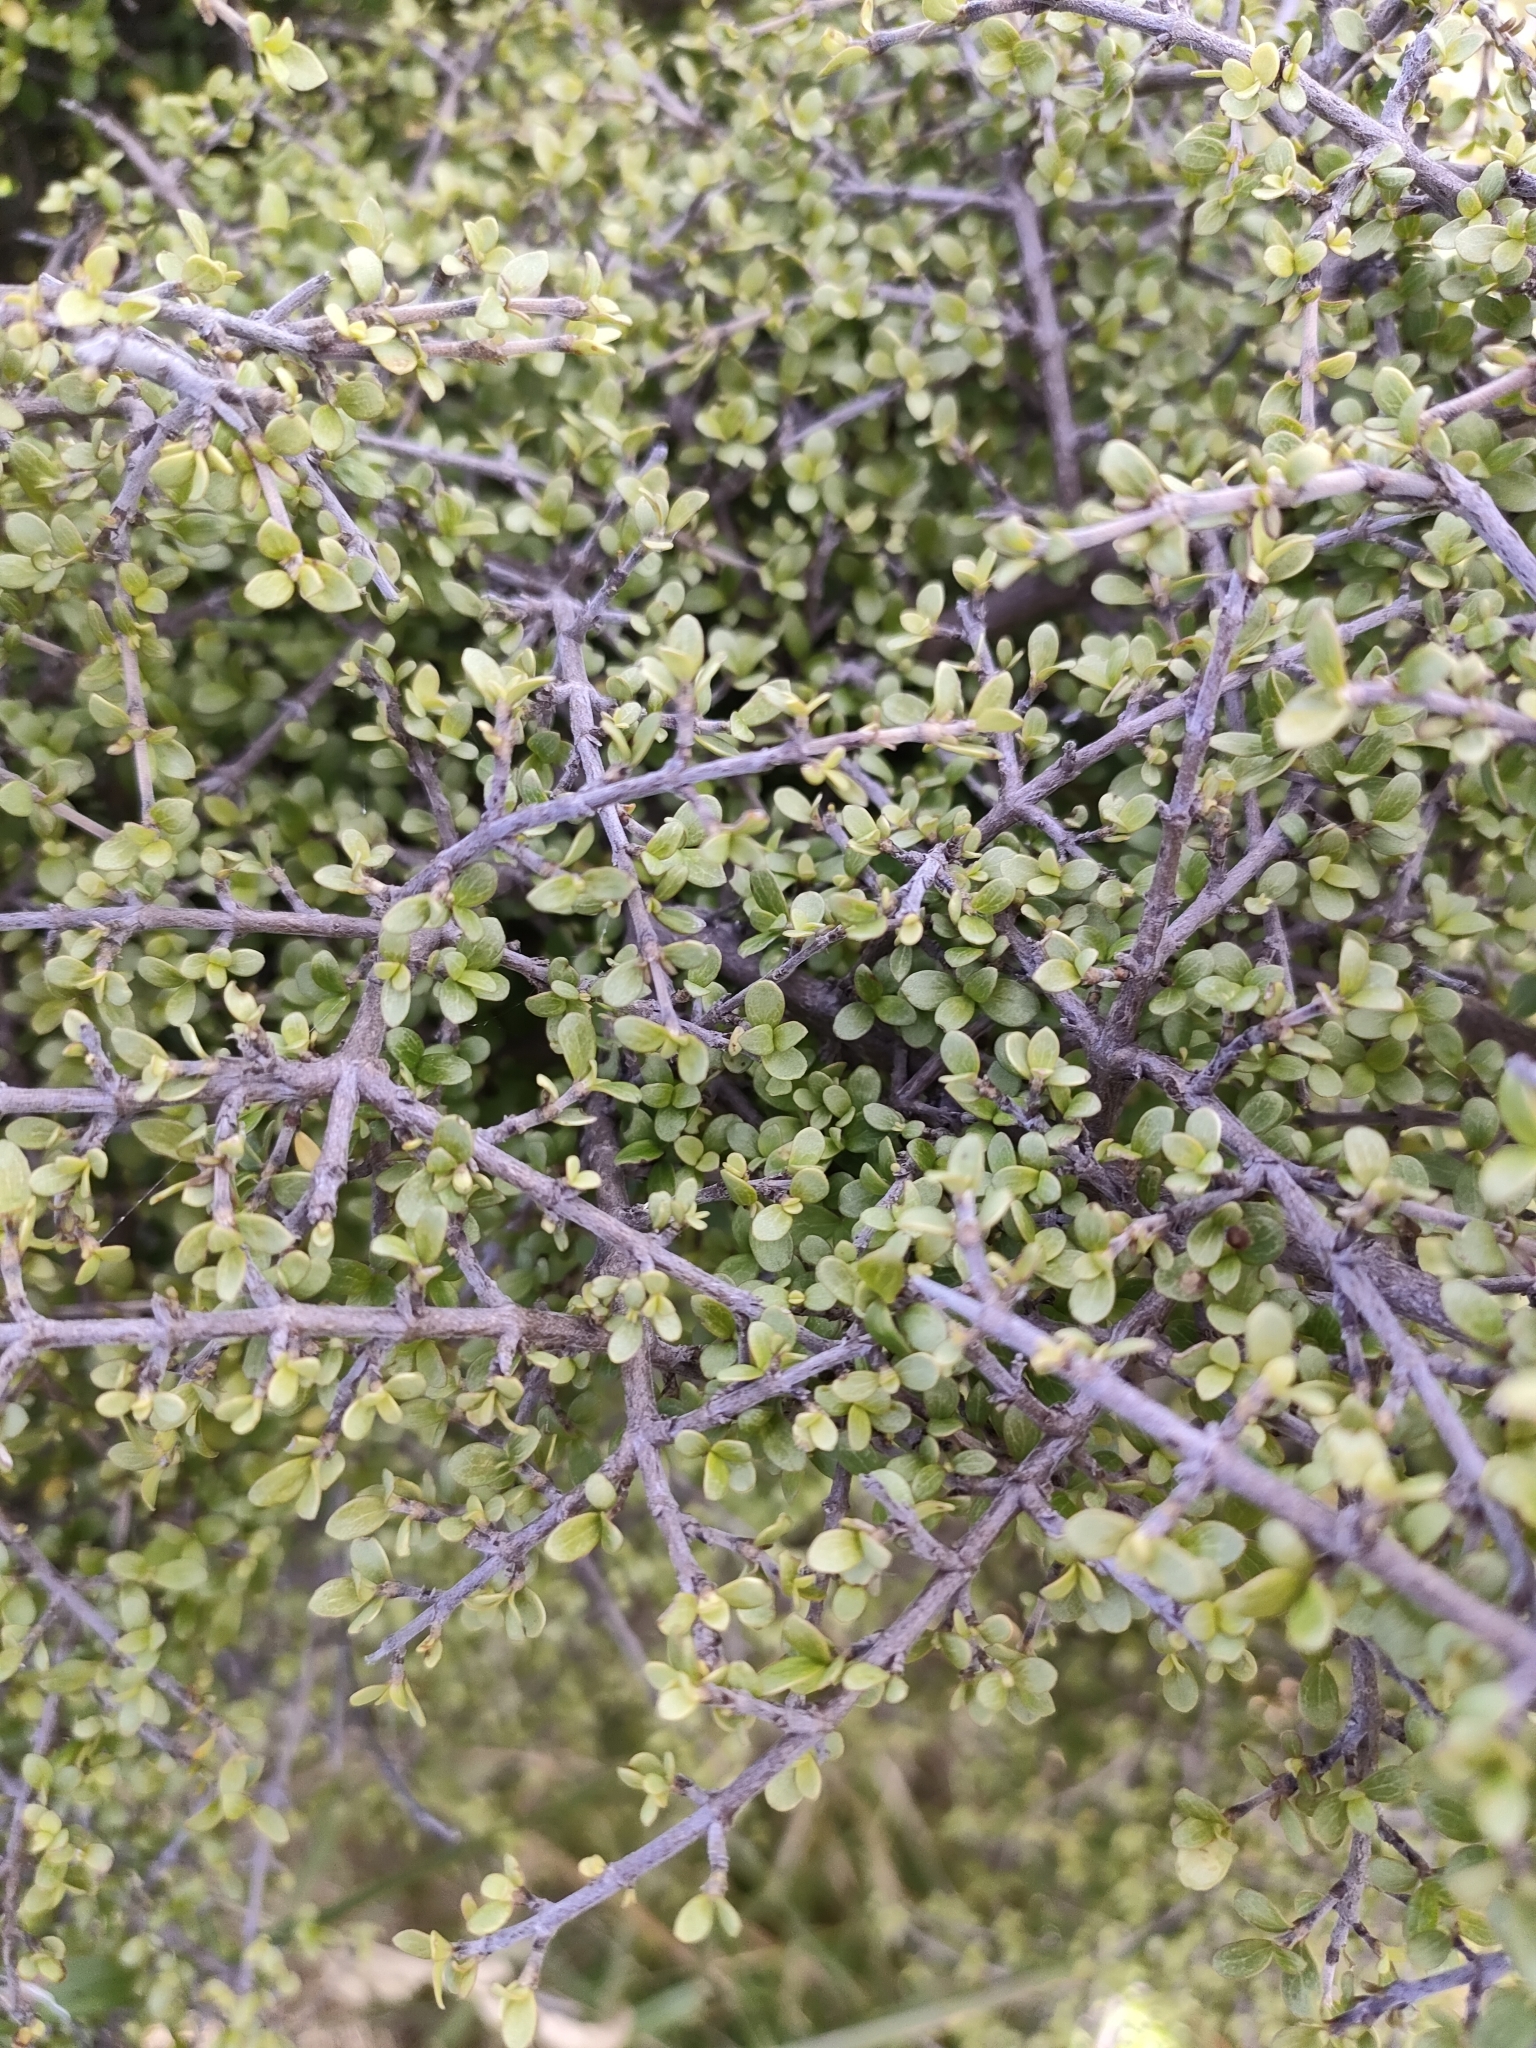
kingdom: Plantae
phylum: Tracheophyta
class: Magnoliopsida
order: Gentianales
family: Rubiaceae
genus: Coprosma
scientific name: Coprosma dumosa
